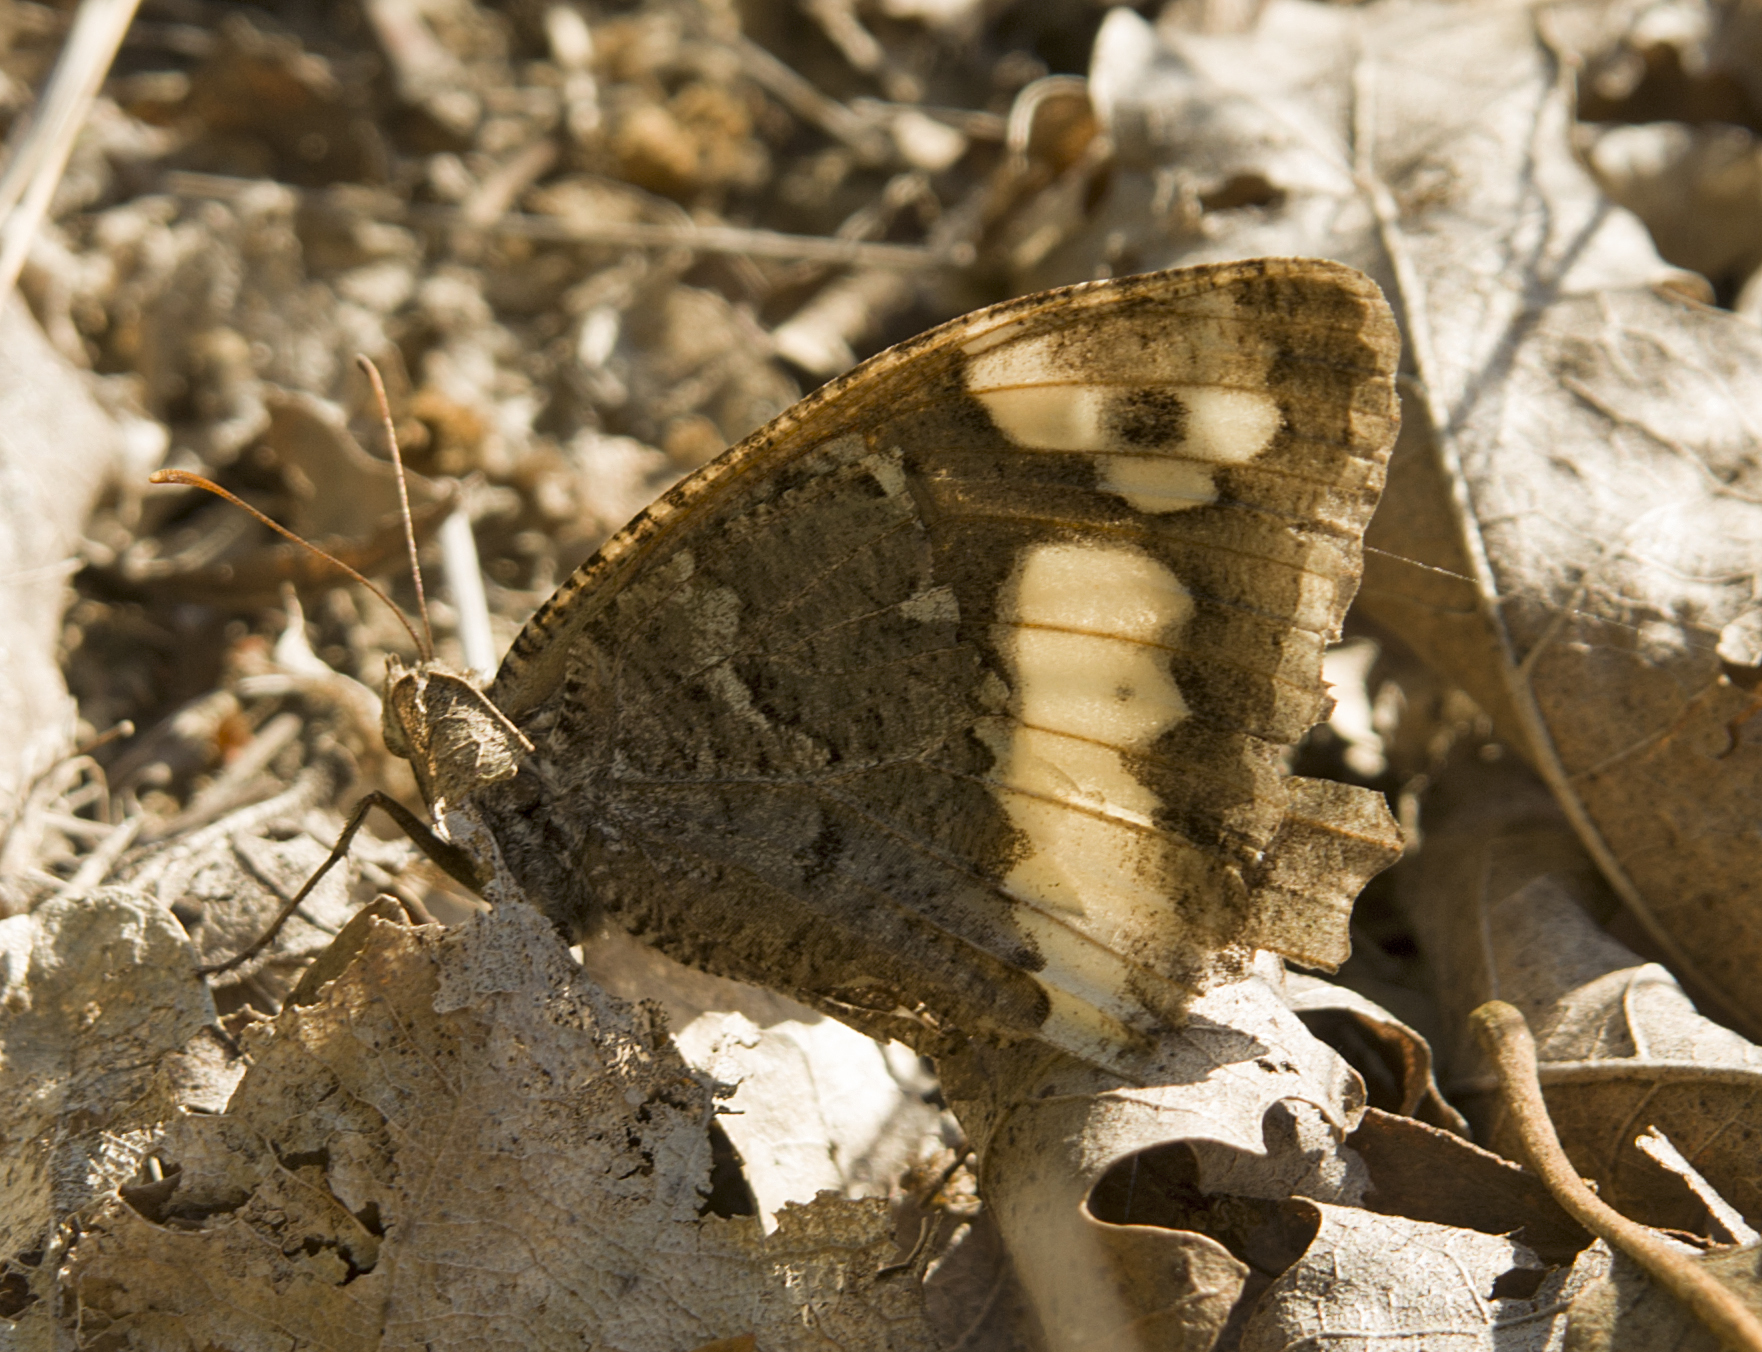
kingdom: Animalia
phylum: Arthropoda
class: Insecta
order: Lepidoptera
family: Lycaenidae
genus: Loweia
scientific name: Loweia tityrus
